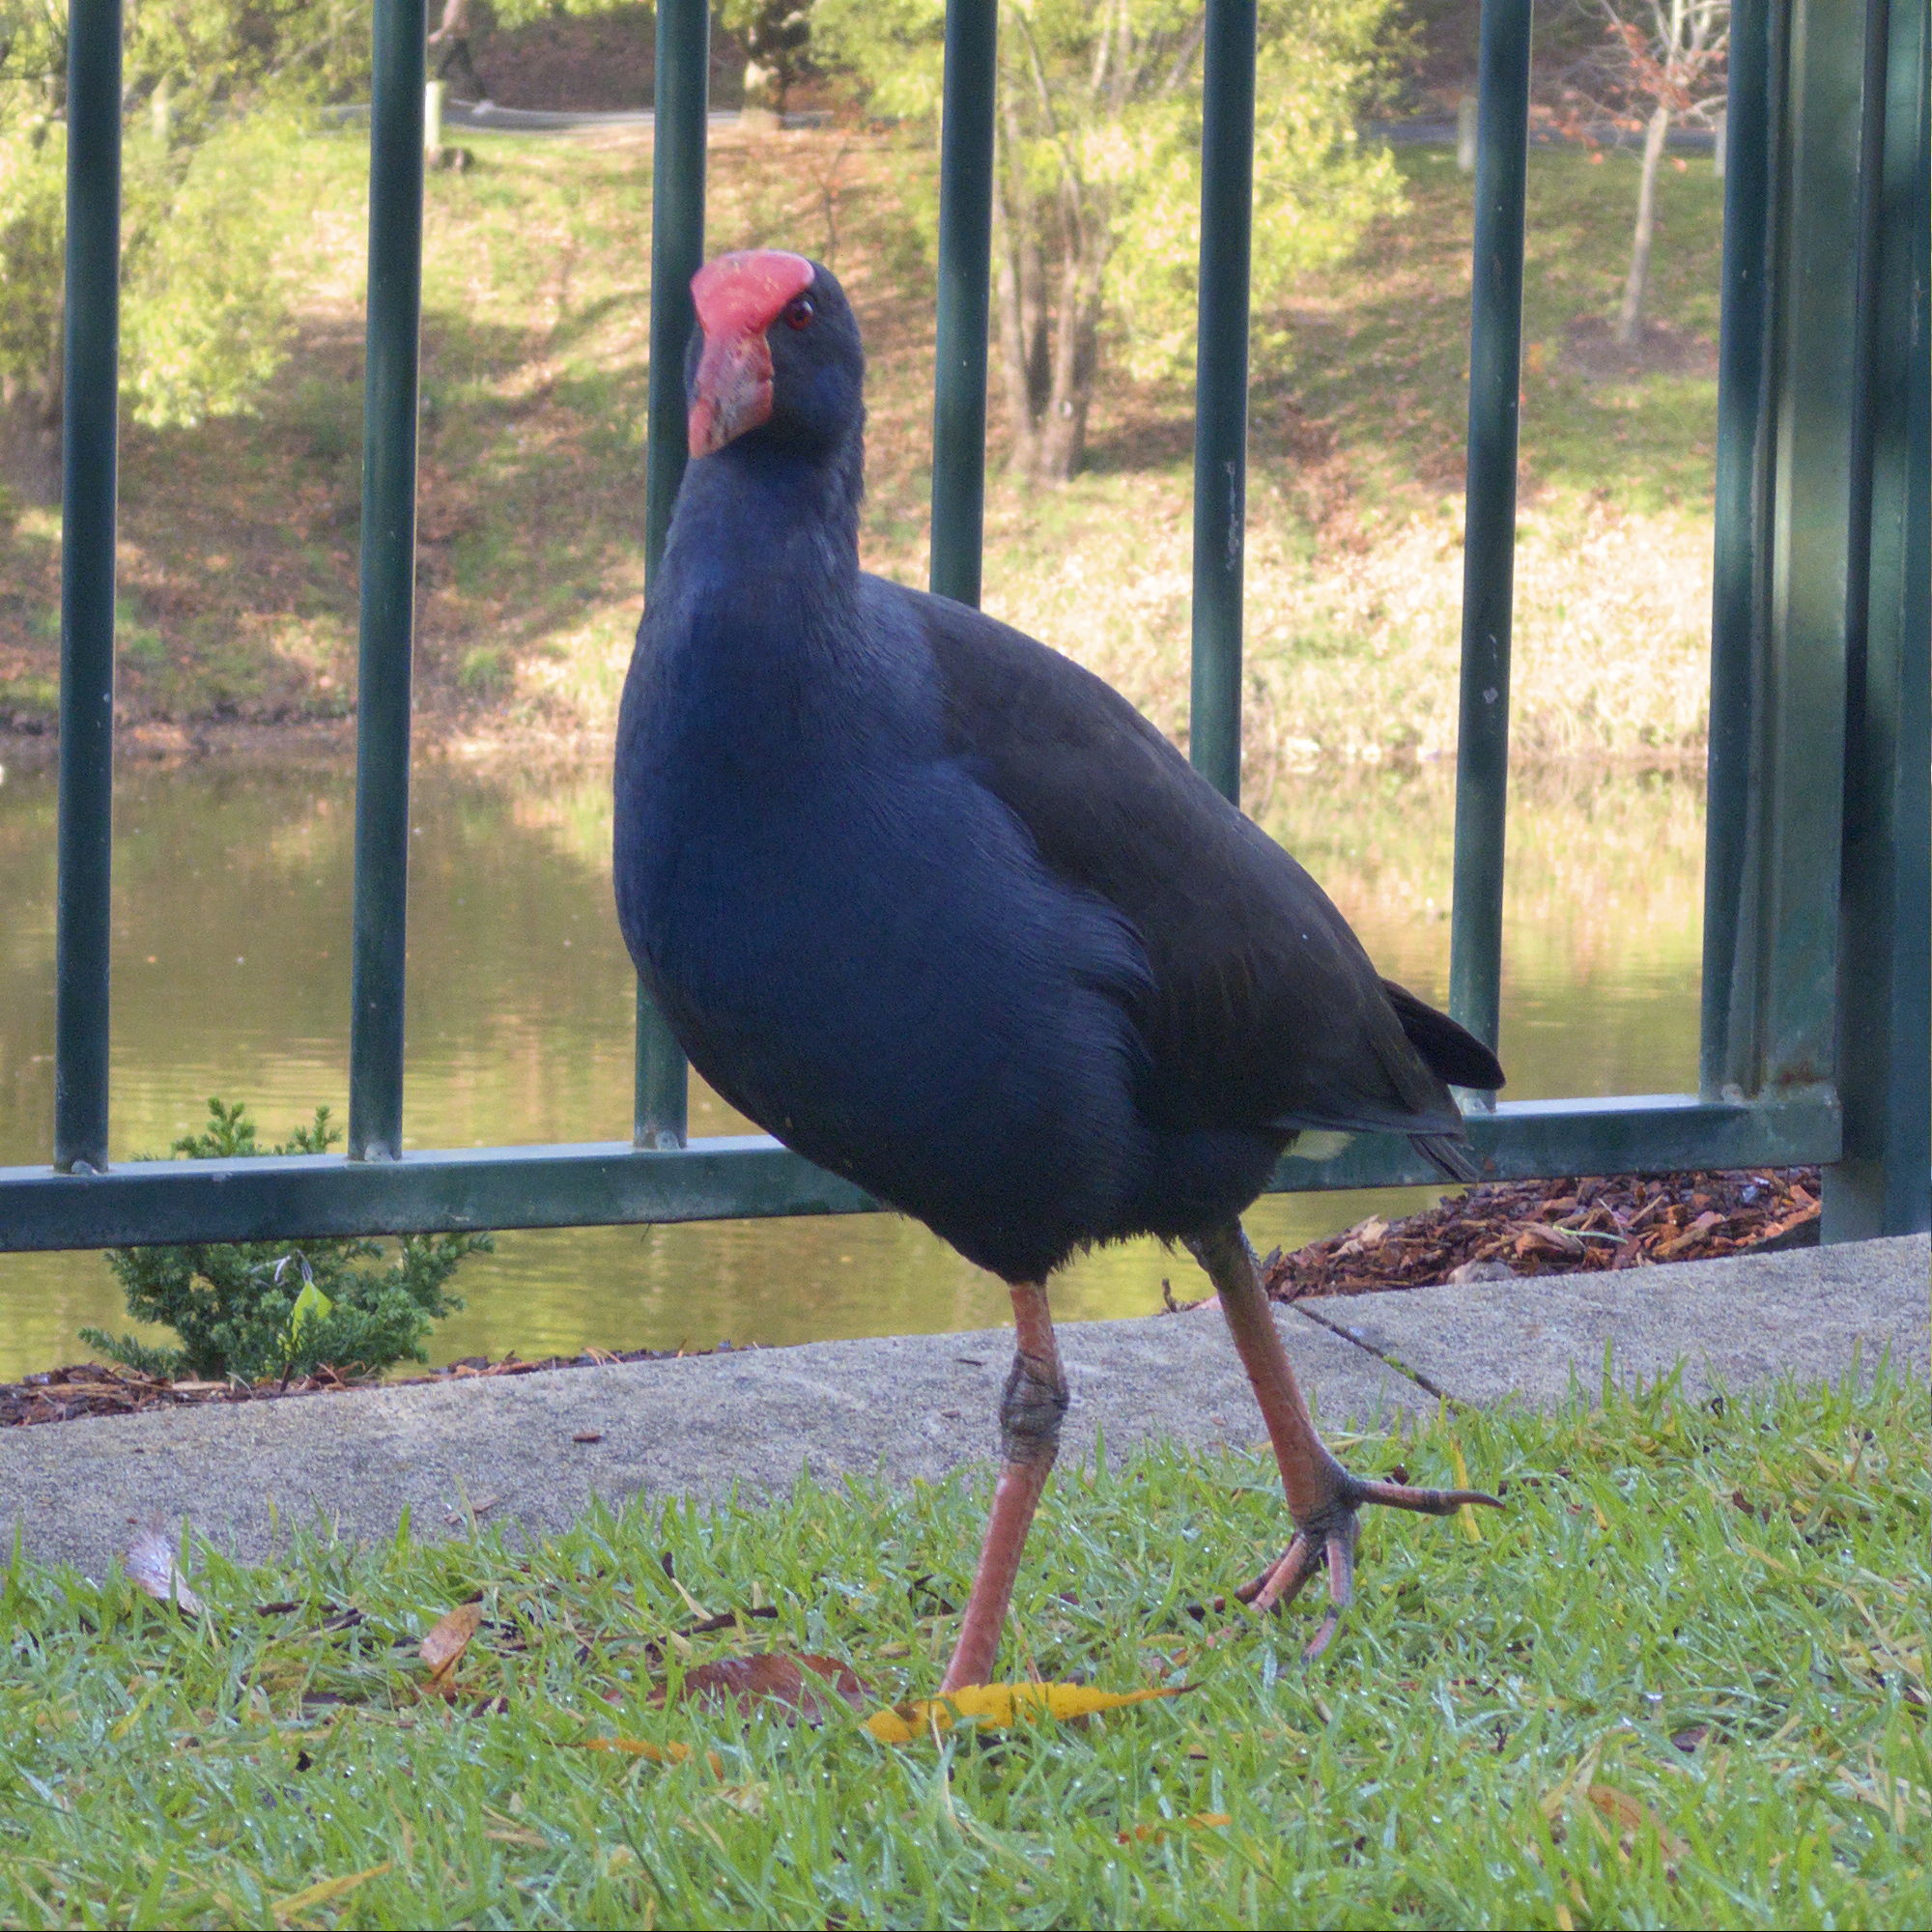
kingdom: Animalia
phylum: Chordata
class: Aves
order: Gruiformes
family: Rallidae
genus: Porphyrio
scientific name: Porphyrio melanotus
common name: Australasian swamphen
